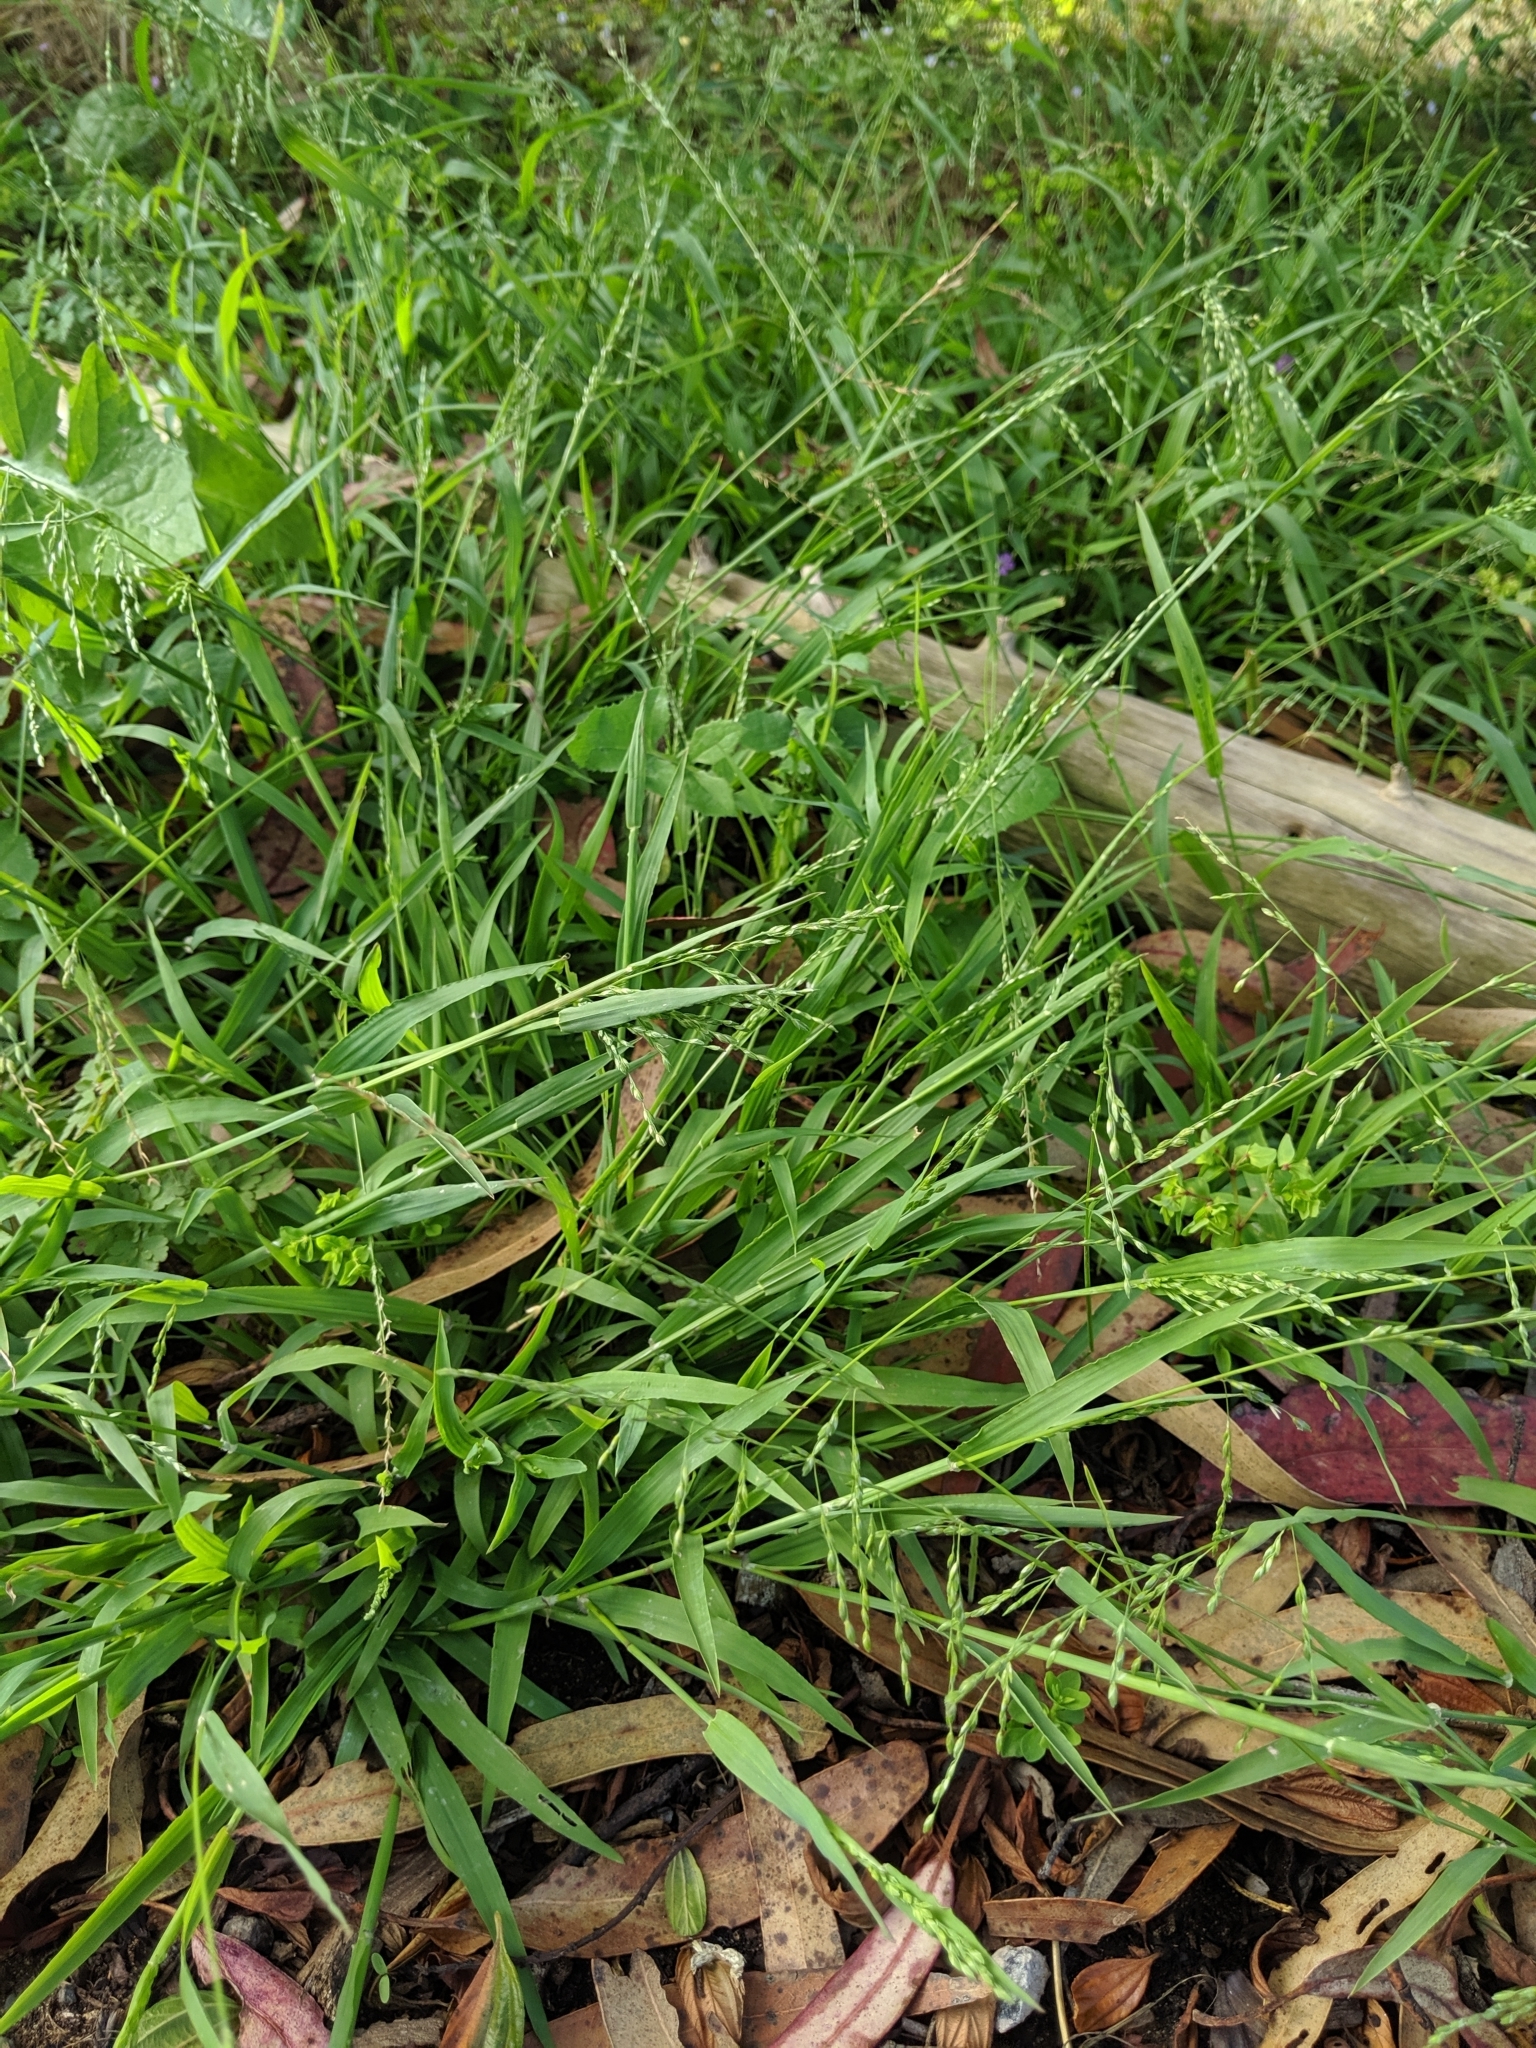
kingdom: Plantae
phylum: Tracheophyta
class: Liliopsida
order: Poales
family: Poaceae
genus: Ehrharta
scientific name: Ehrharta erecta
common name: Panic veldtgrass
